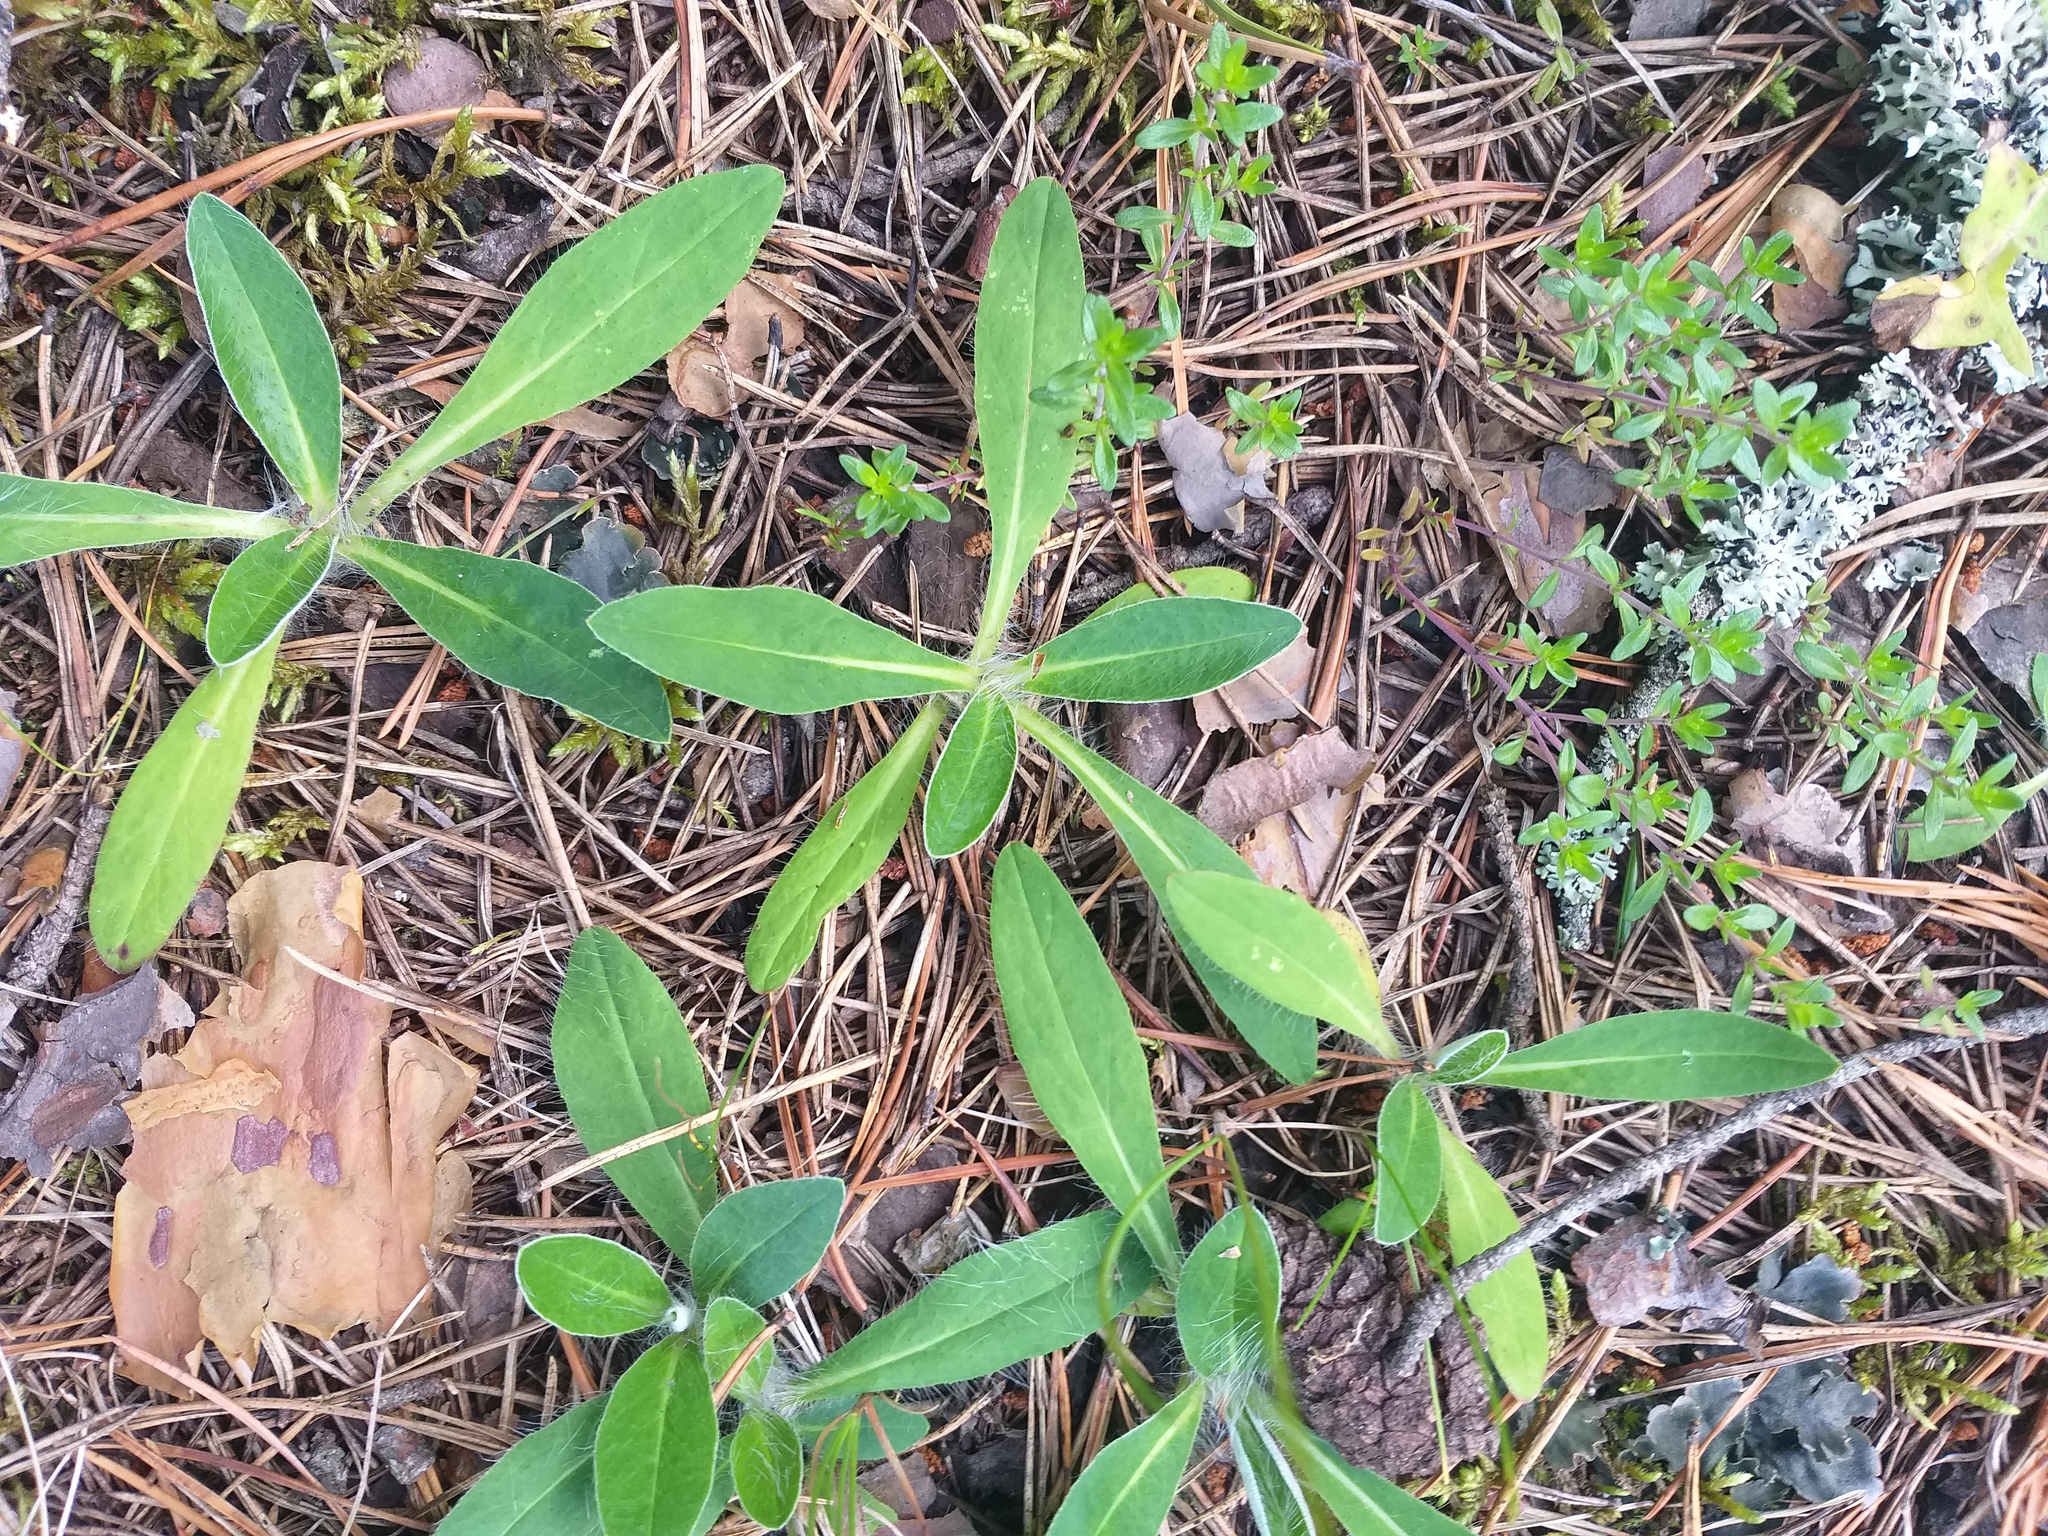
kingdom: Plantae
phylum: Tracheophyta
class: Magnoliopsida
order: Asterales
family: Asteraceae
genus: Pilosella
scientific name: Pilosella officinarum
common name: Mouse-ear hawkweed
